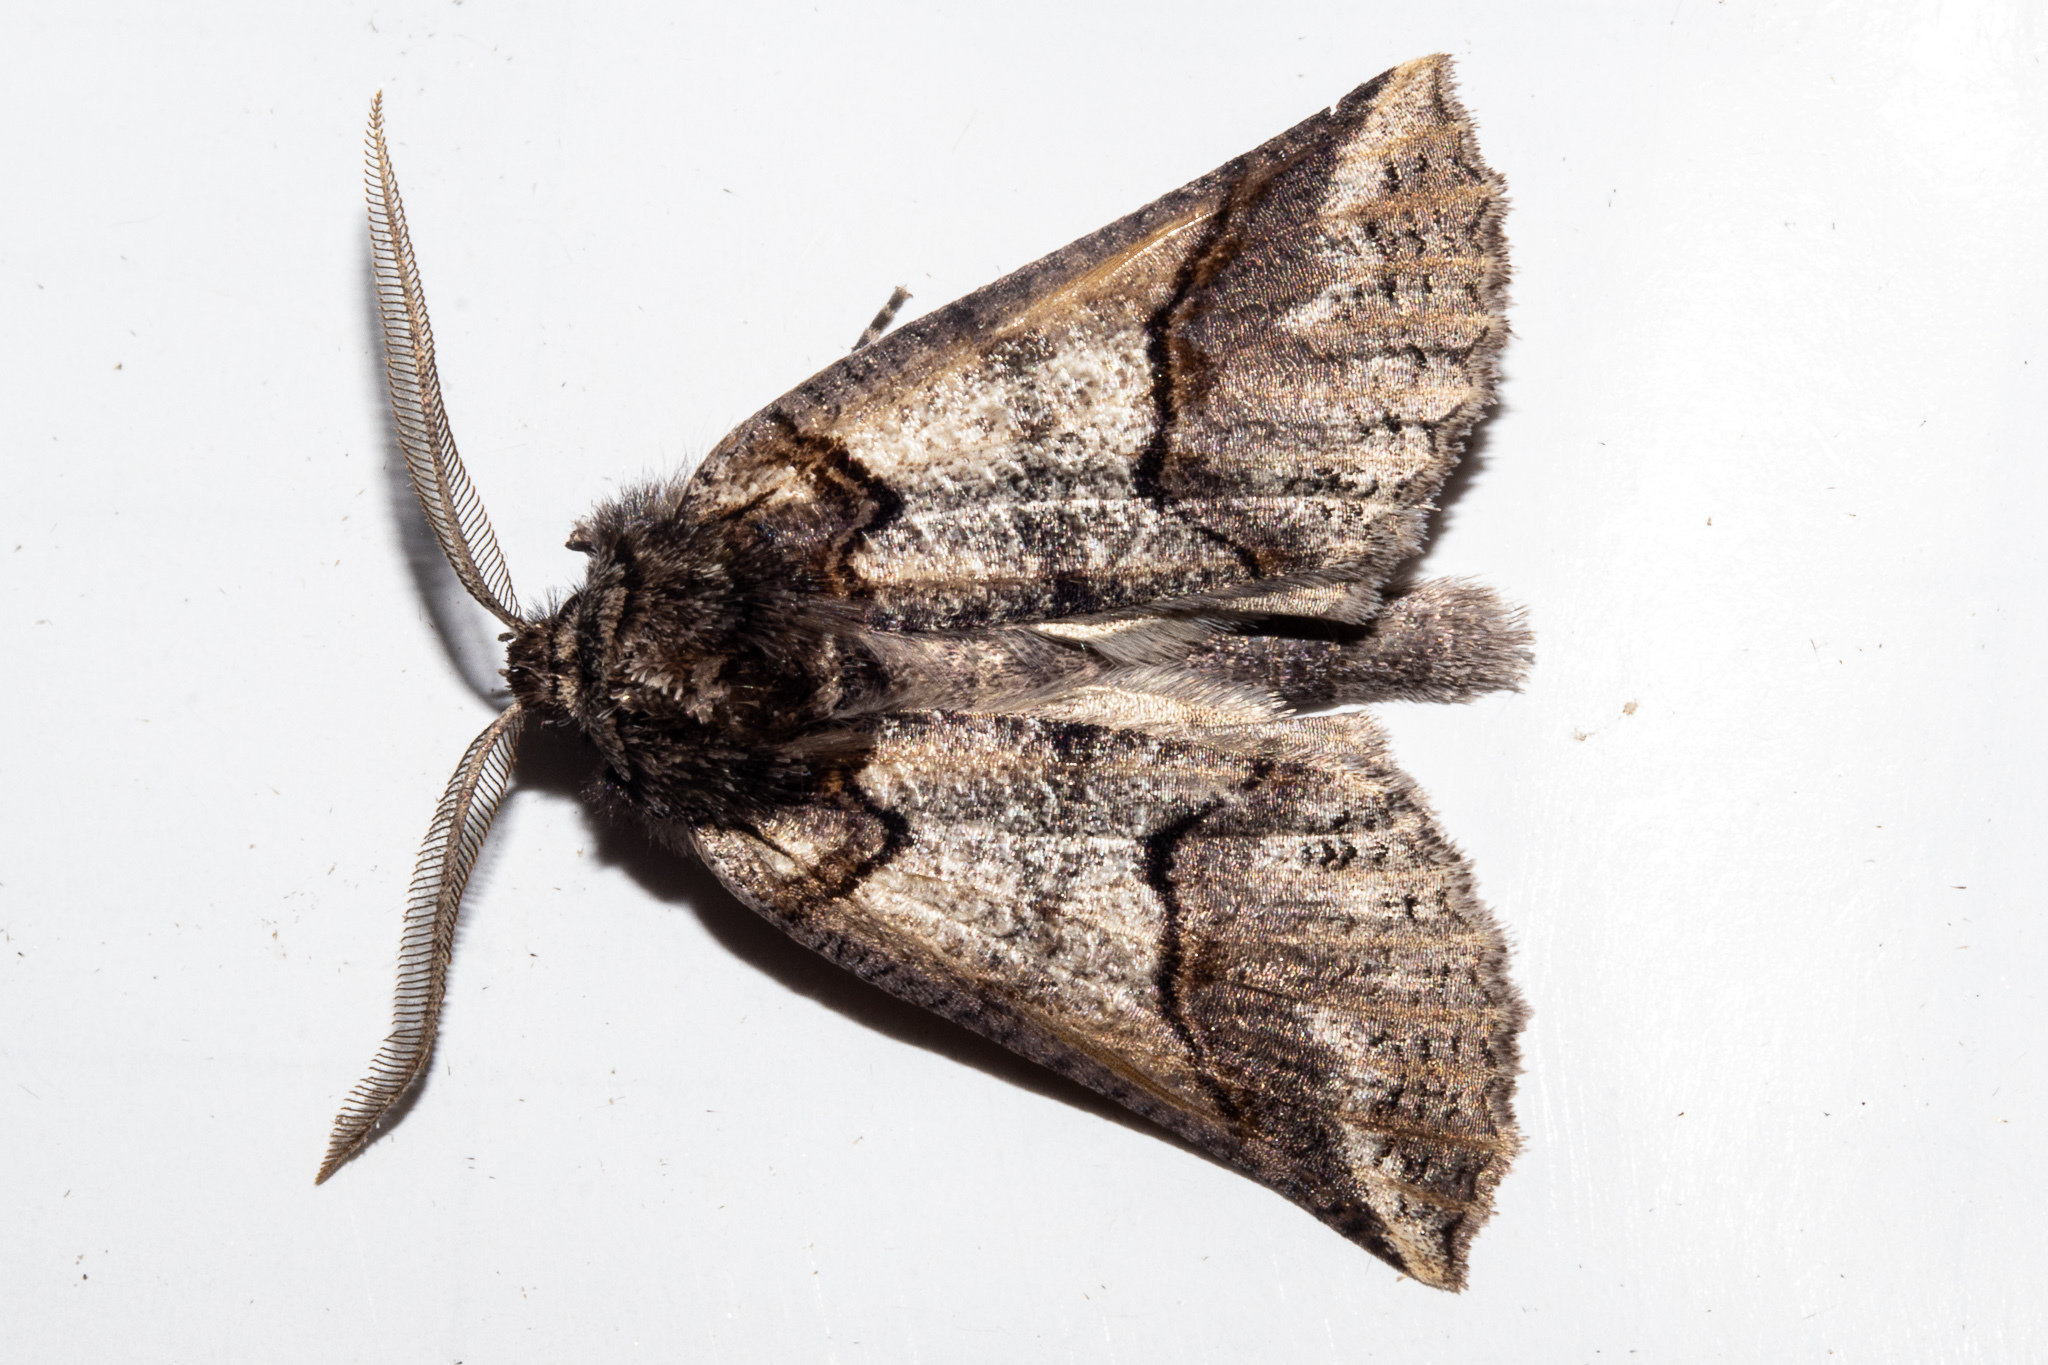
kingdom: Animalia
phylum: Arthropoda
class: Insecta
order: Lepidoptera
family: Geometridae
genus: Declana
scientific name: Declana
